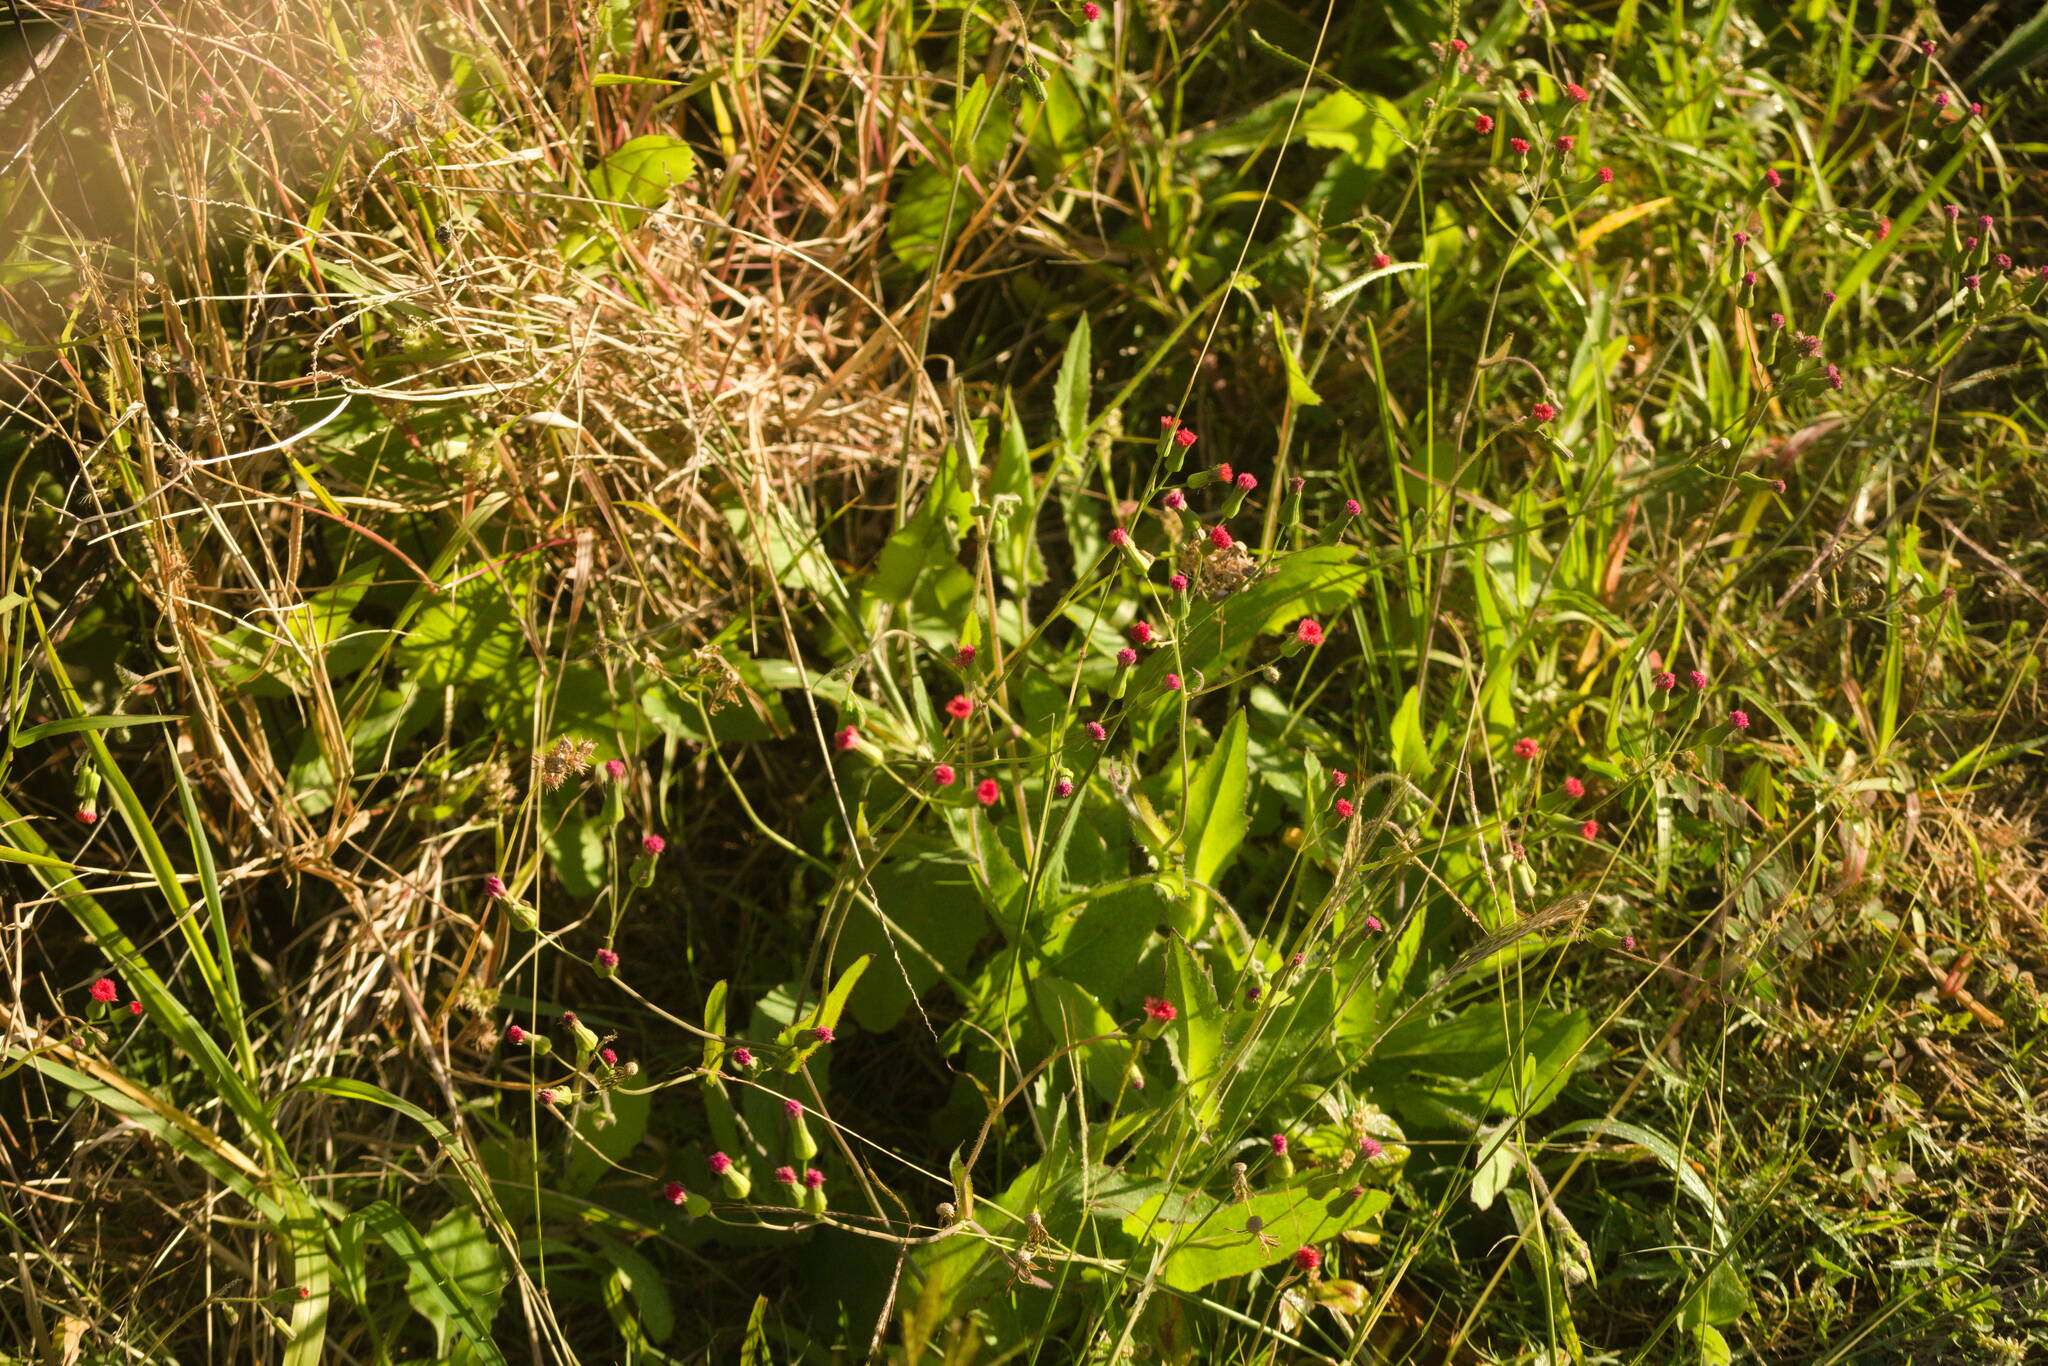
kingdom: Plantae
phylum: Tracheophyta
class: Magnoliopsida
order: Asterales
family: Asteraceae
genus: Emilia
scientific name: Emilia fosbergii
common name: Florida tasselflower
